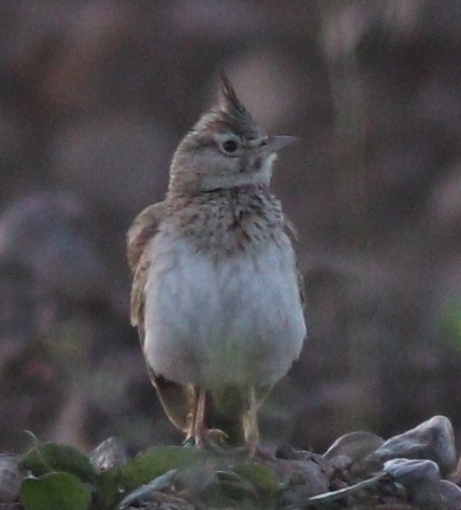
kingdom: Animalia
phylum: Chordata
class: Aves
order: Passeriformes
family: Alaudidae
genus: Galerida
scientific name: Galerida cristata
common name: Crested lark
